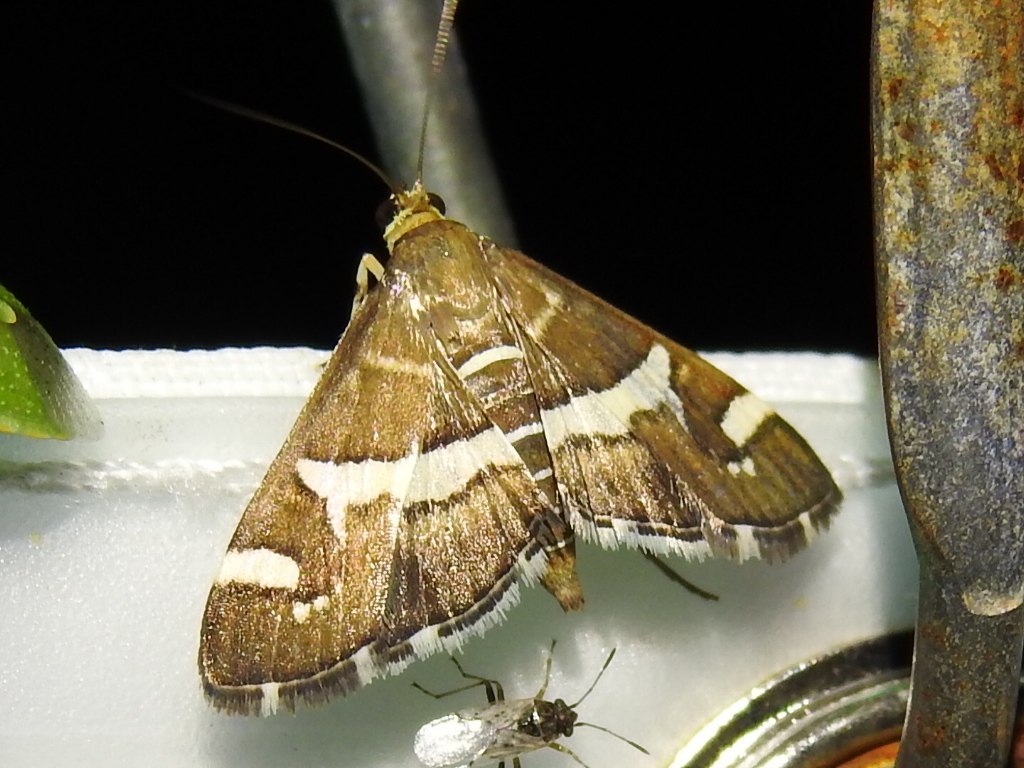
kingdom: Animalia
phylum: Arthropoda
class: Insecta
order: Lepidoptera
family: Crambidae
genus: Spoladea
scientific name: Spoladea recurvalis
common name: Beet webworm moth
